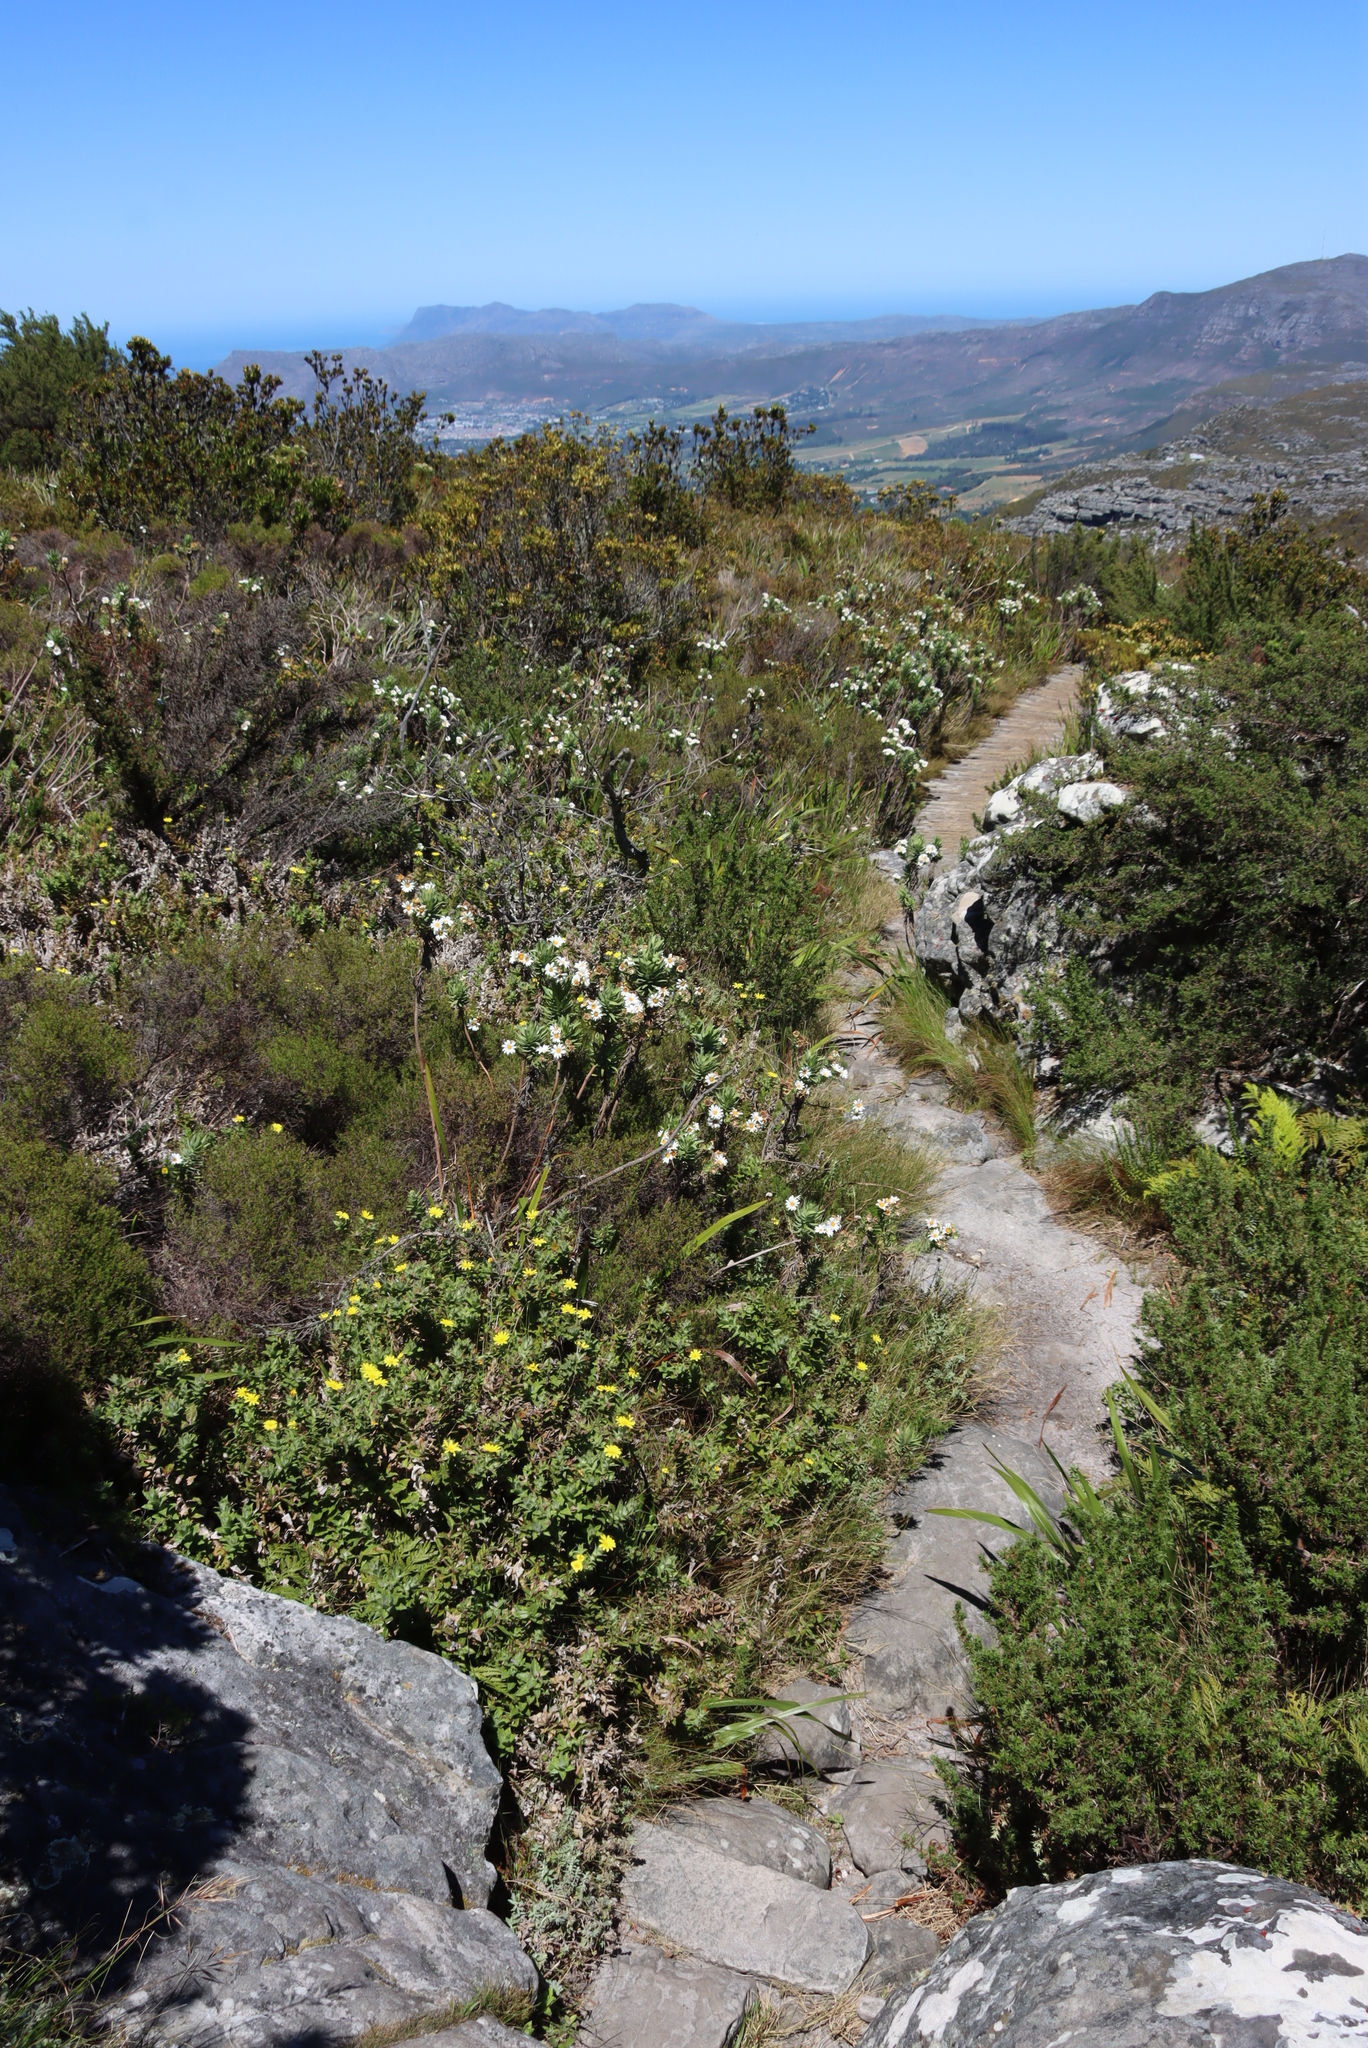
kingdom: Plantae
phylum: Tracheophyta
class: Magnoliopsida
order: Asterales
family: Asteraceae
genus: Osmitopsis
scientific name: Osmitopsis asteriscoides
